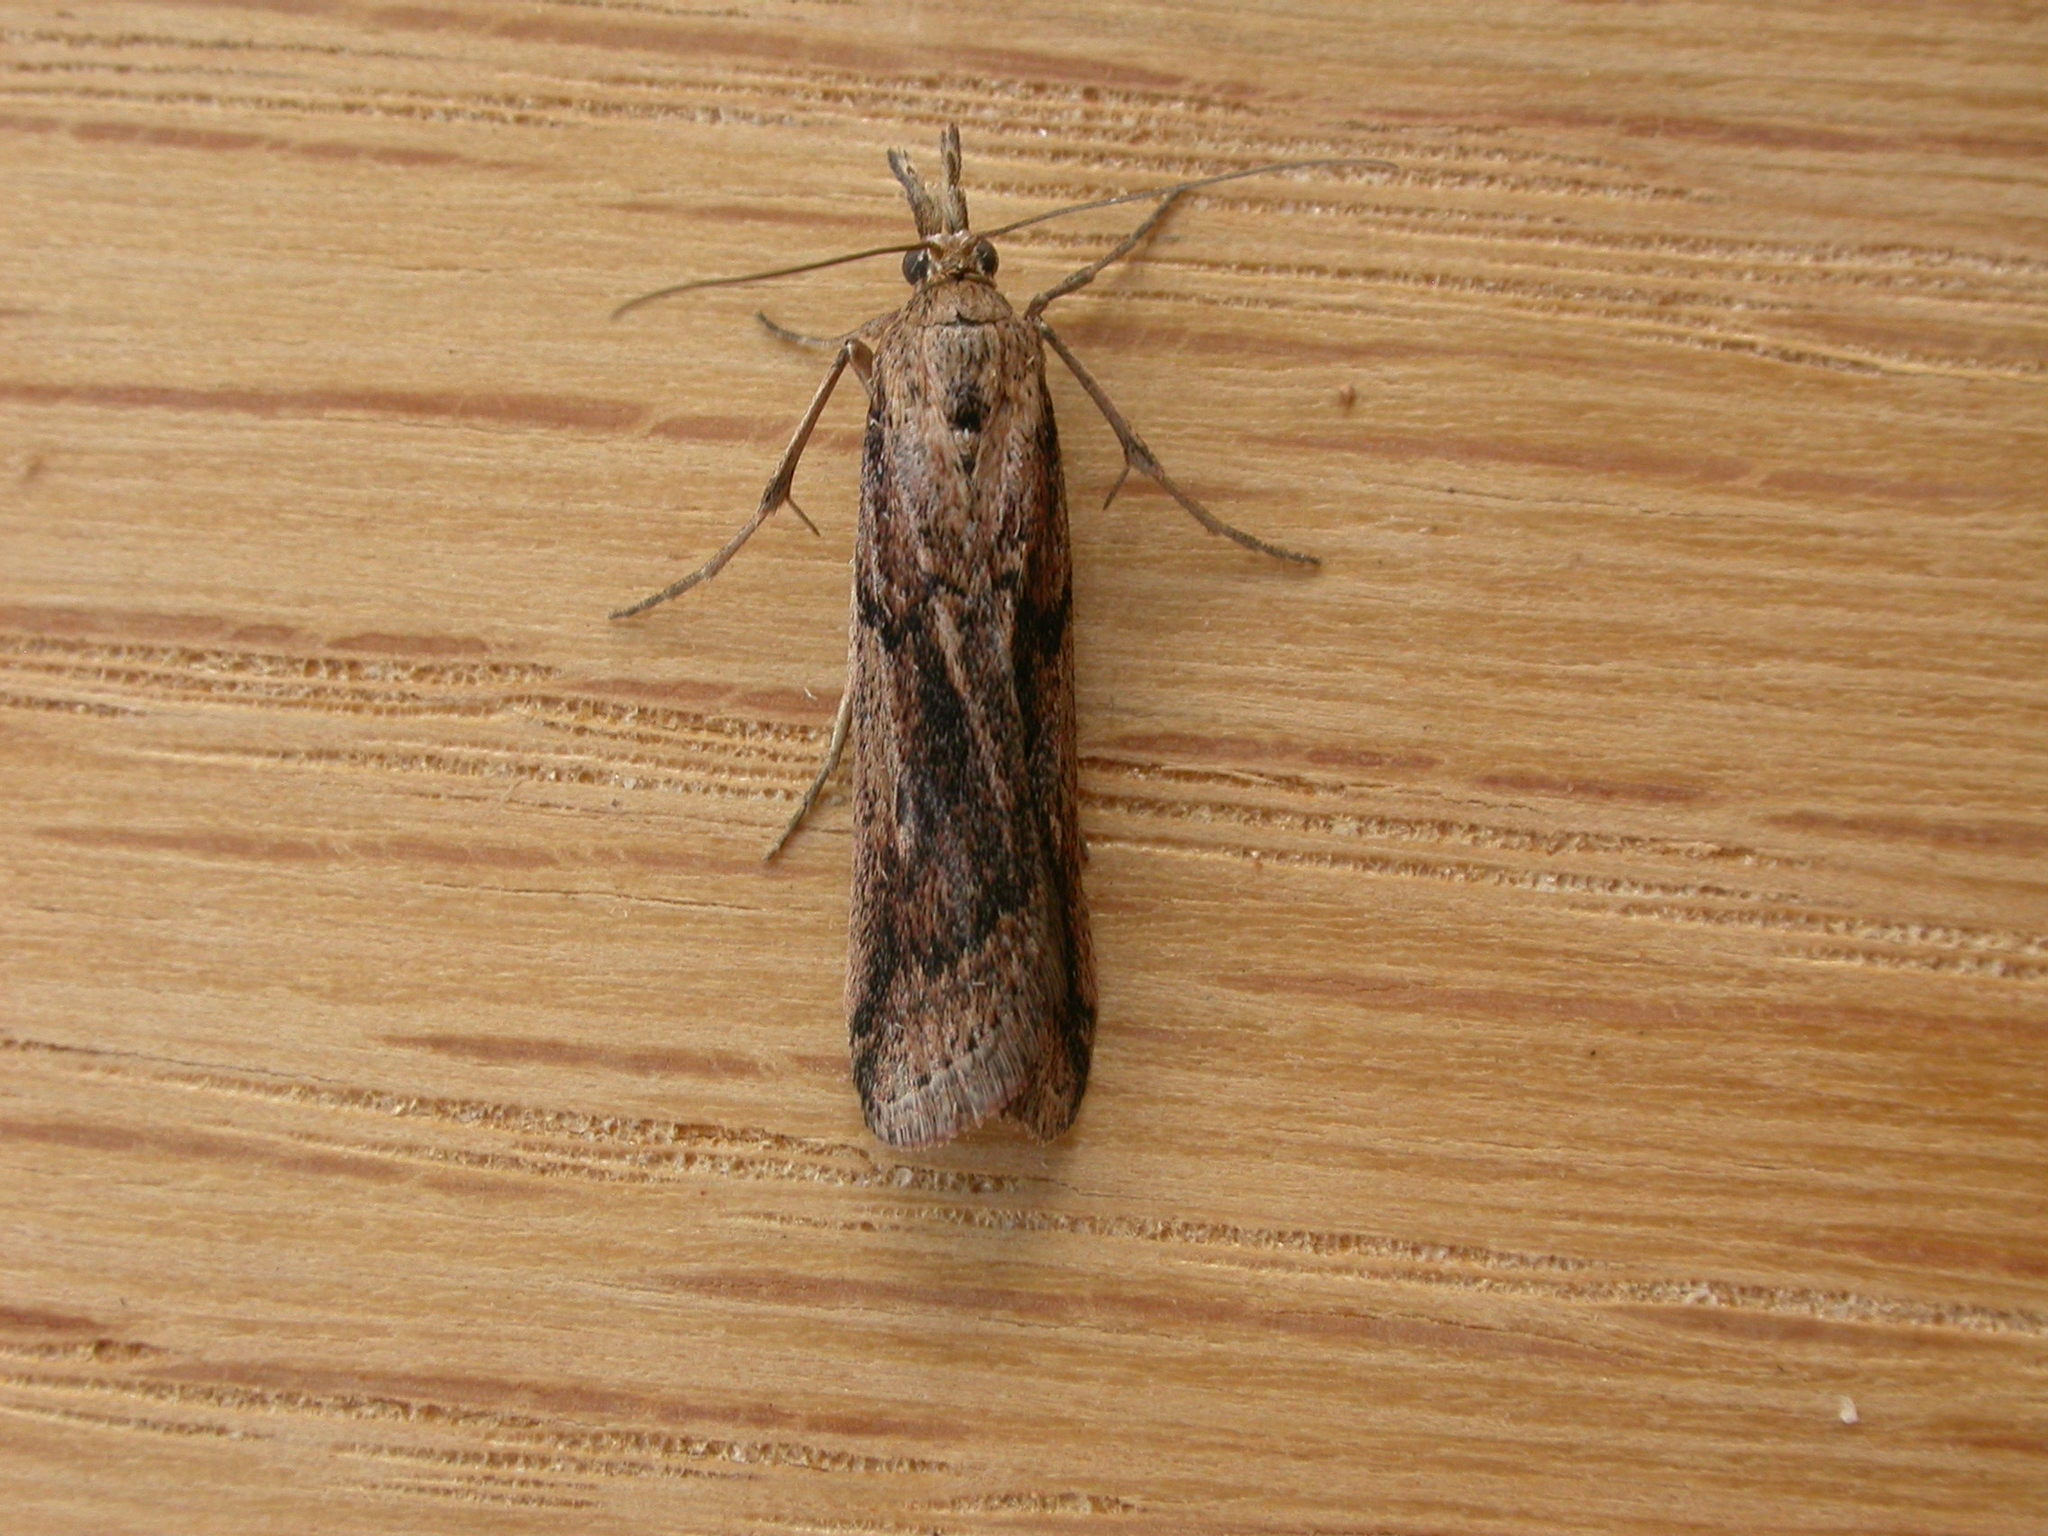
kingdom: Animalia
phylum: Arthropoda
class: Insecta
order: Lepidoptera
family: Pyralidae
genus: Faveria
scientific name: Faveria tritalis
